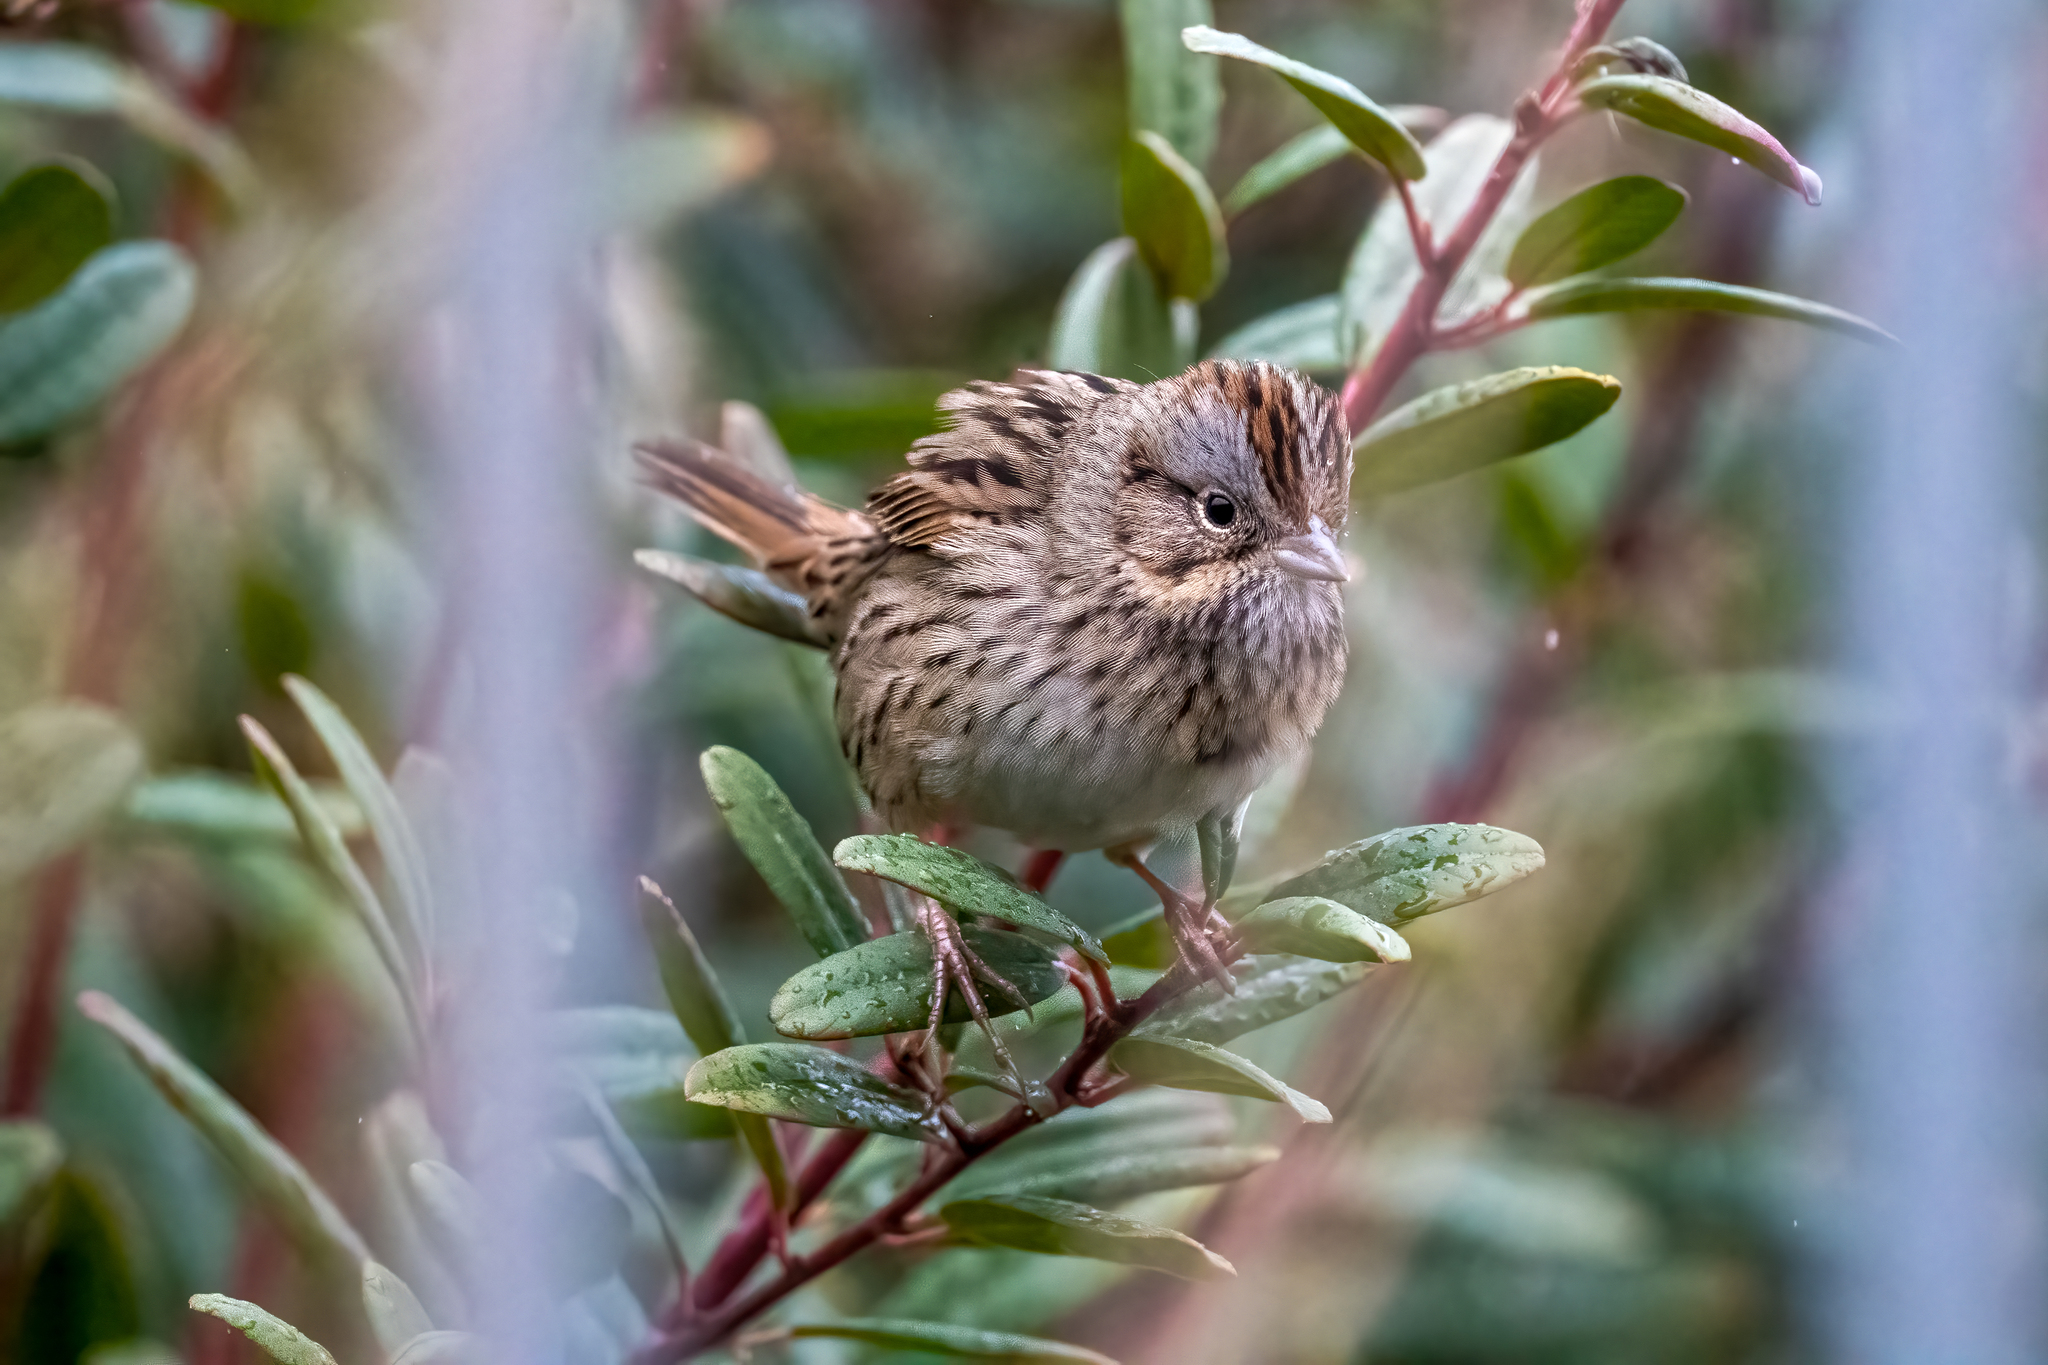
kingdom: Animalia
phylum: Chordata
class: Aves
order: Passeriformes
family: Passerellidae
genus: Melospiza
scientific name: Melospiza lincolnii
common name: Lincoln's sparrow
